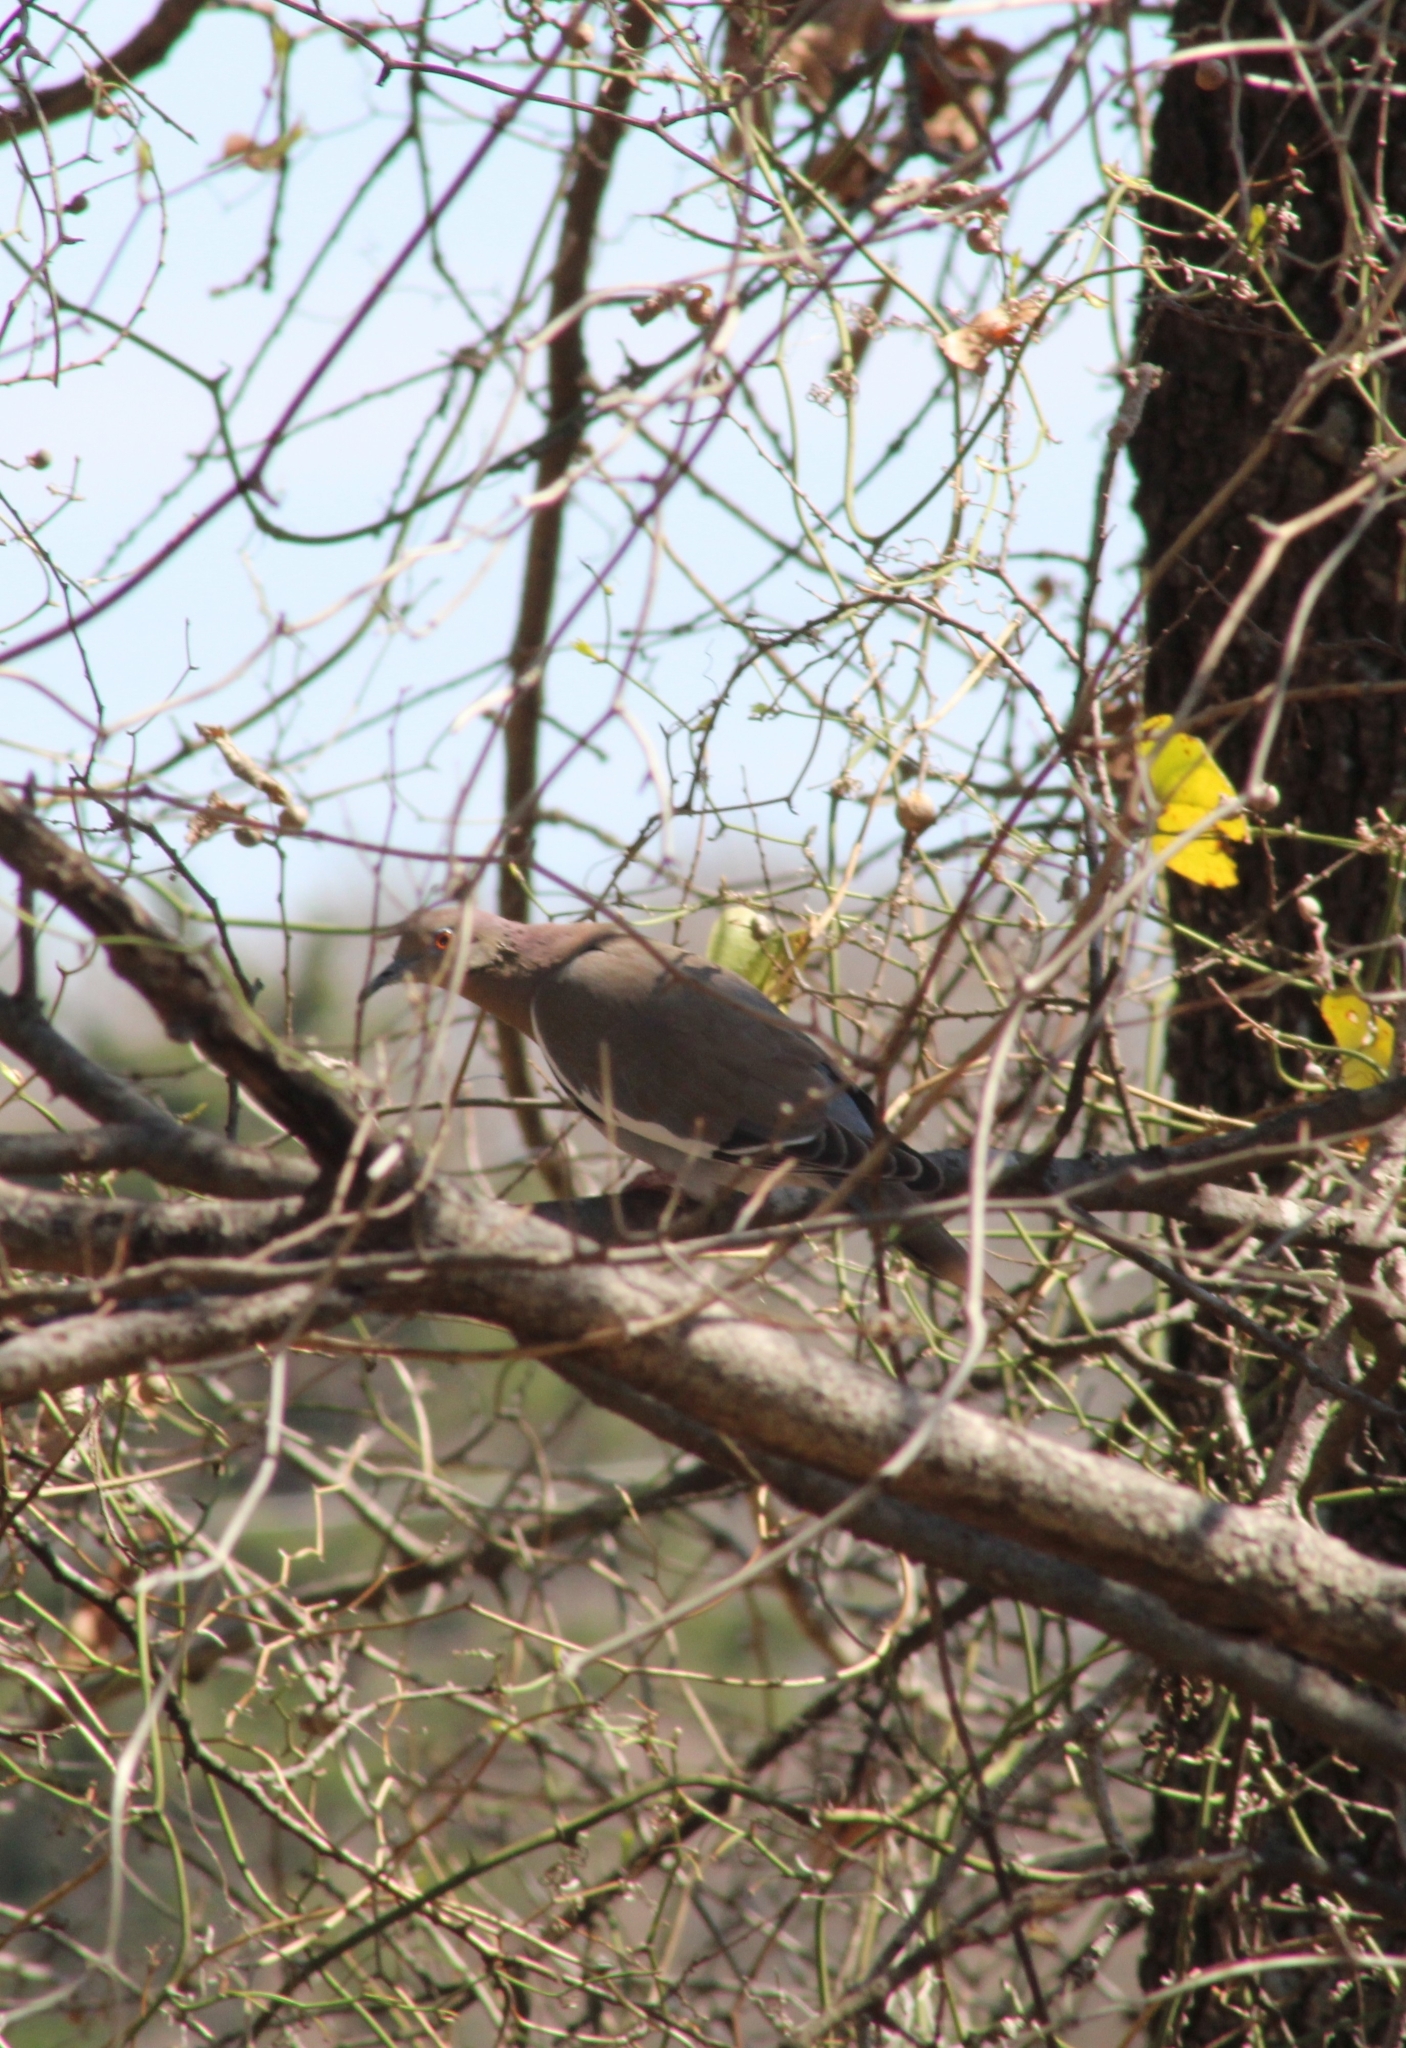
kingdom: Animalia
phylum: Chordata
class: Aves
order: Columbiformes
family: Columbidae
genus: Zenaida
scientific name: Zenaida asiatica
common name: White-winged dove
